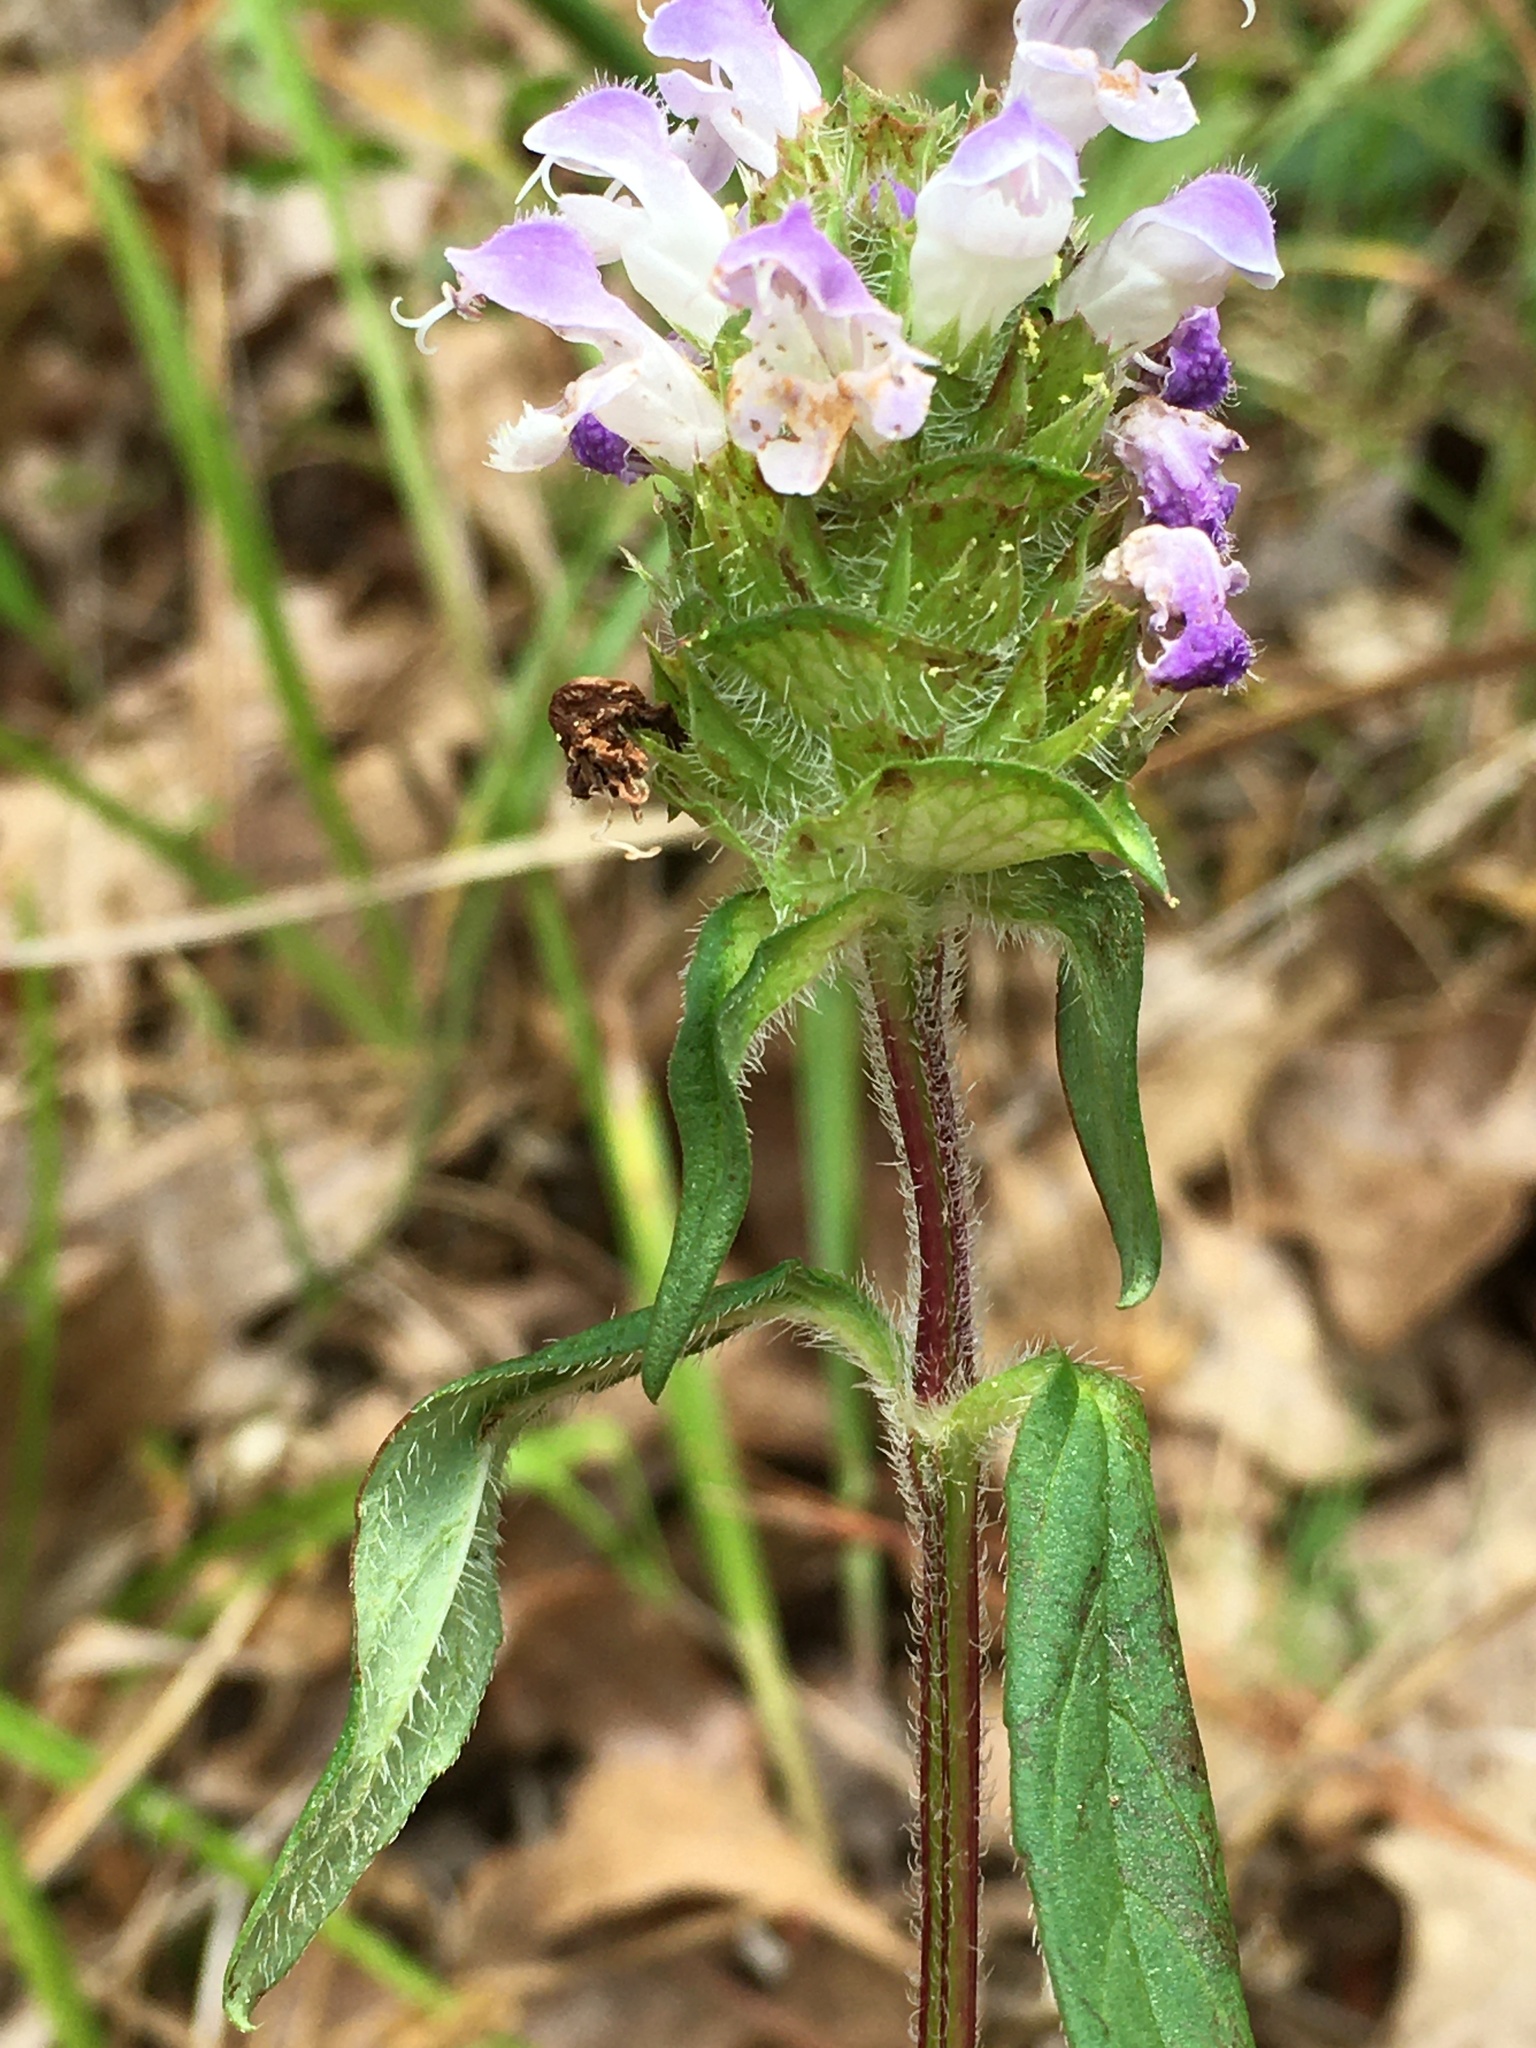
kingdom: Plantae
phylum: Tracheophyta
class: Magnoliopsida
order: Lamiales
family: Lamiaceae
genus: Prunella
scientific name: Prunella vulgaris
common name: Heal-all
